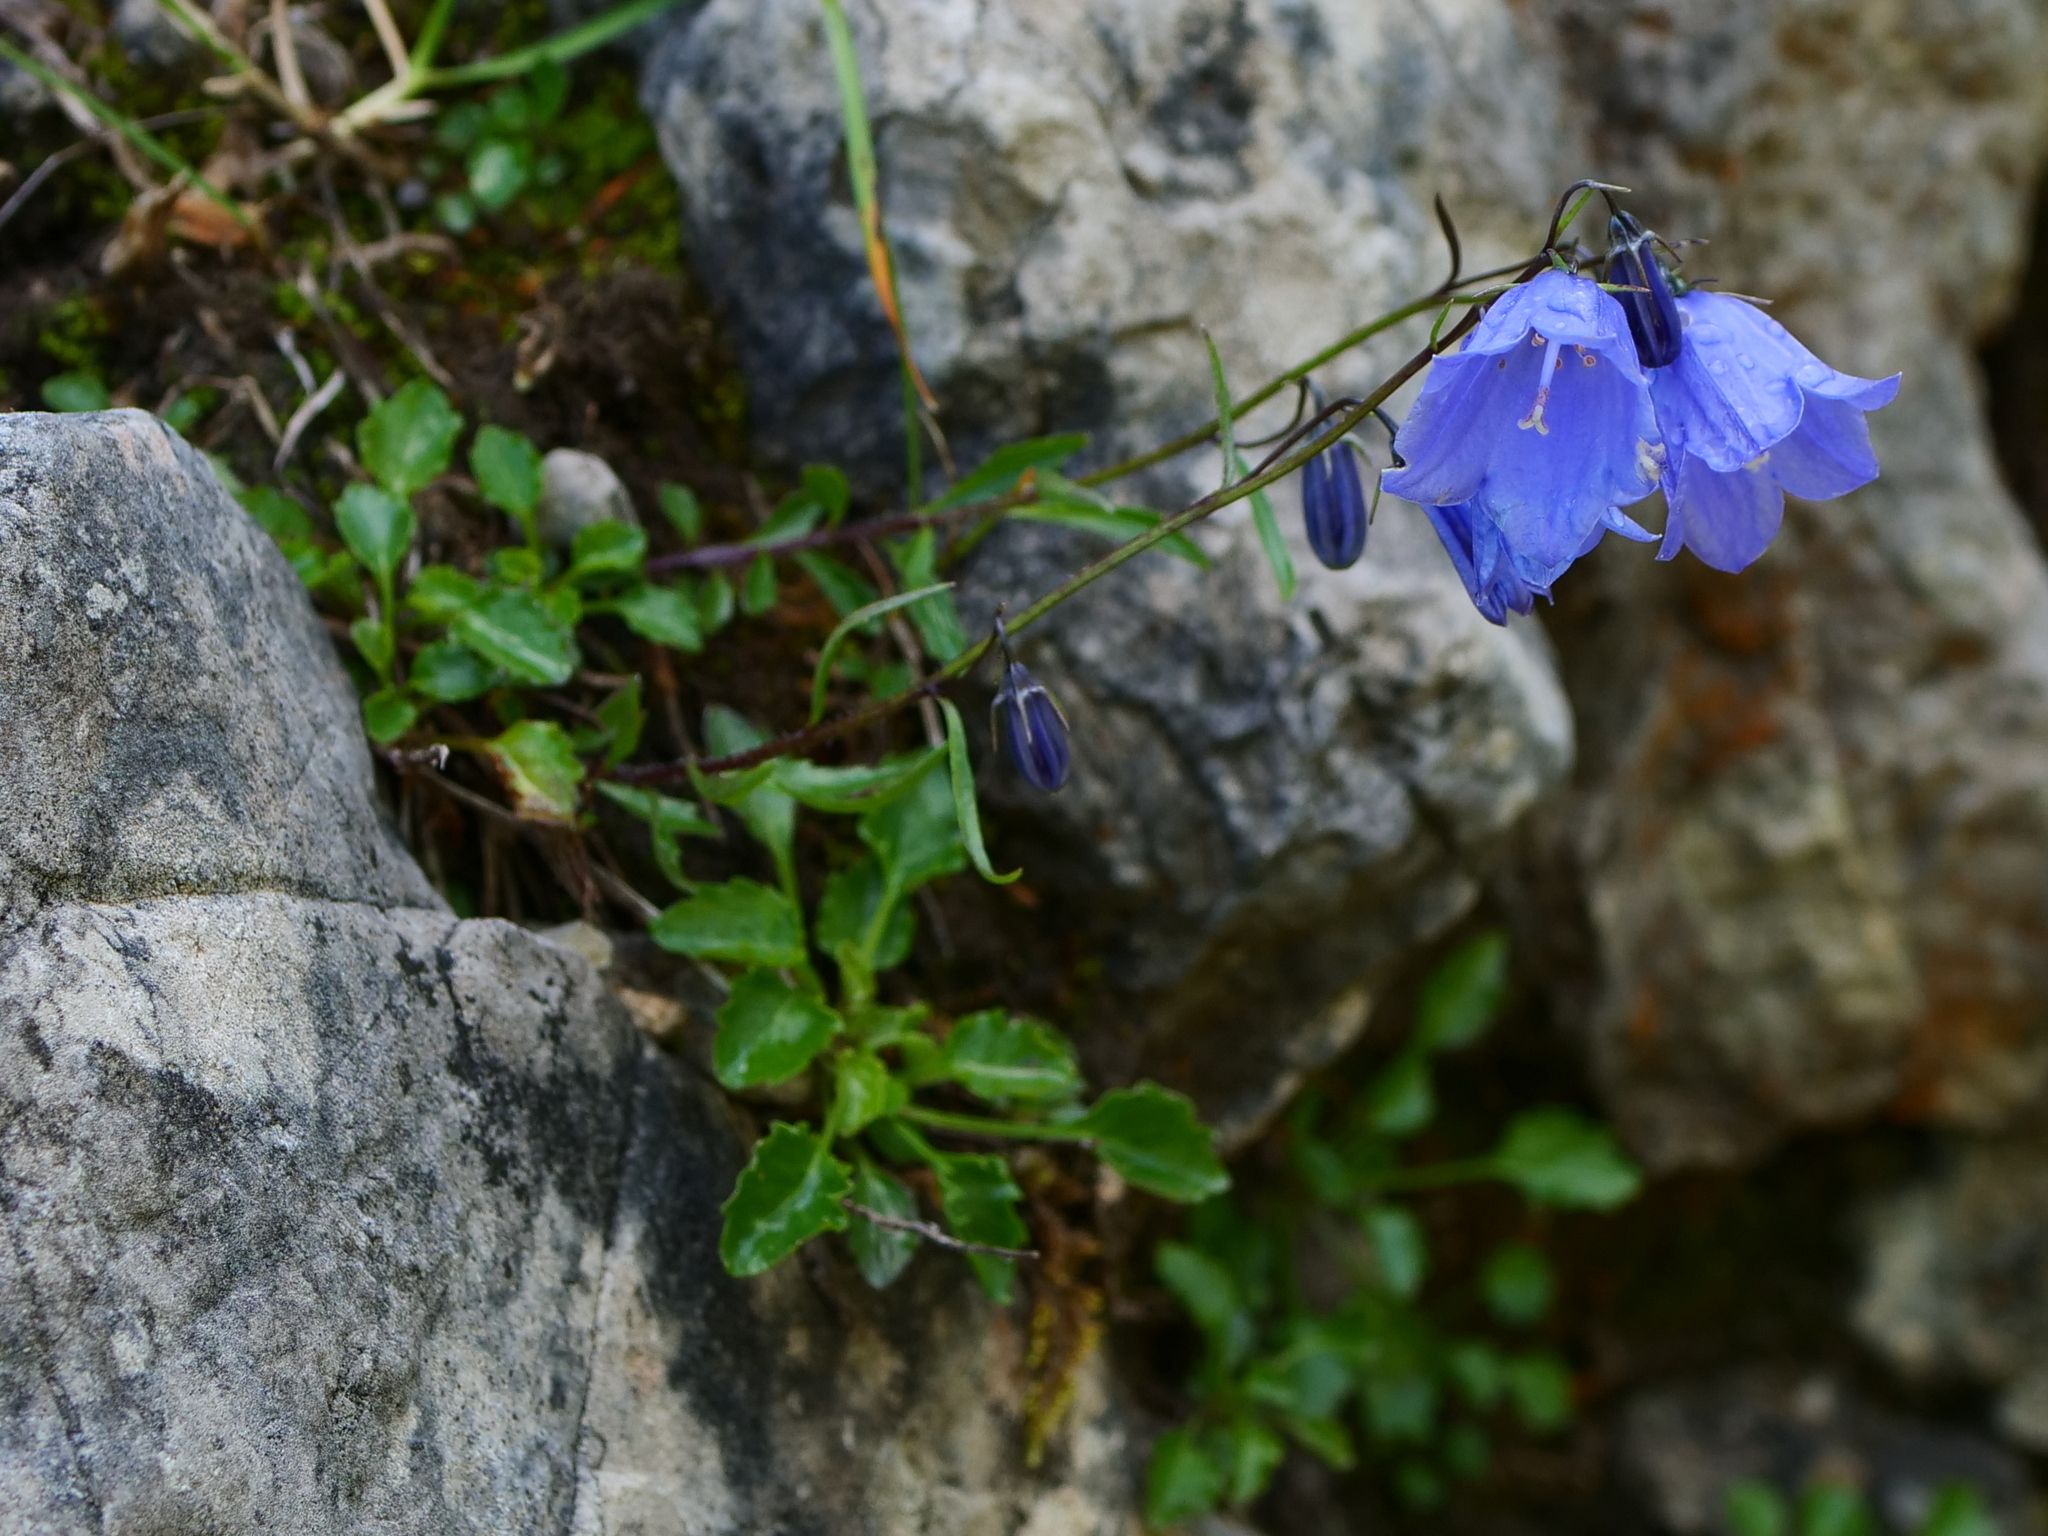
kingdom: Plantae
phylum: Tracheophyta
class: Magnoliopsida
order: Asterales
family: Campanulaceae
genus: Campanula
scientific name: Campanula cochleariifolia
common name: Fairies'-thimbles
